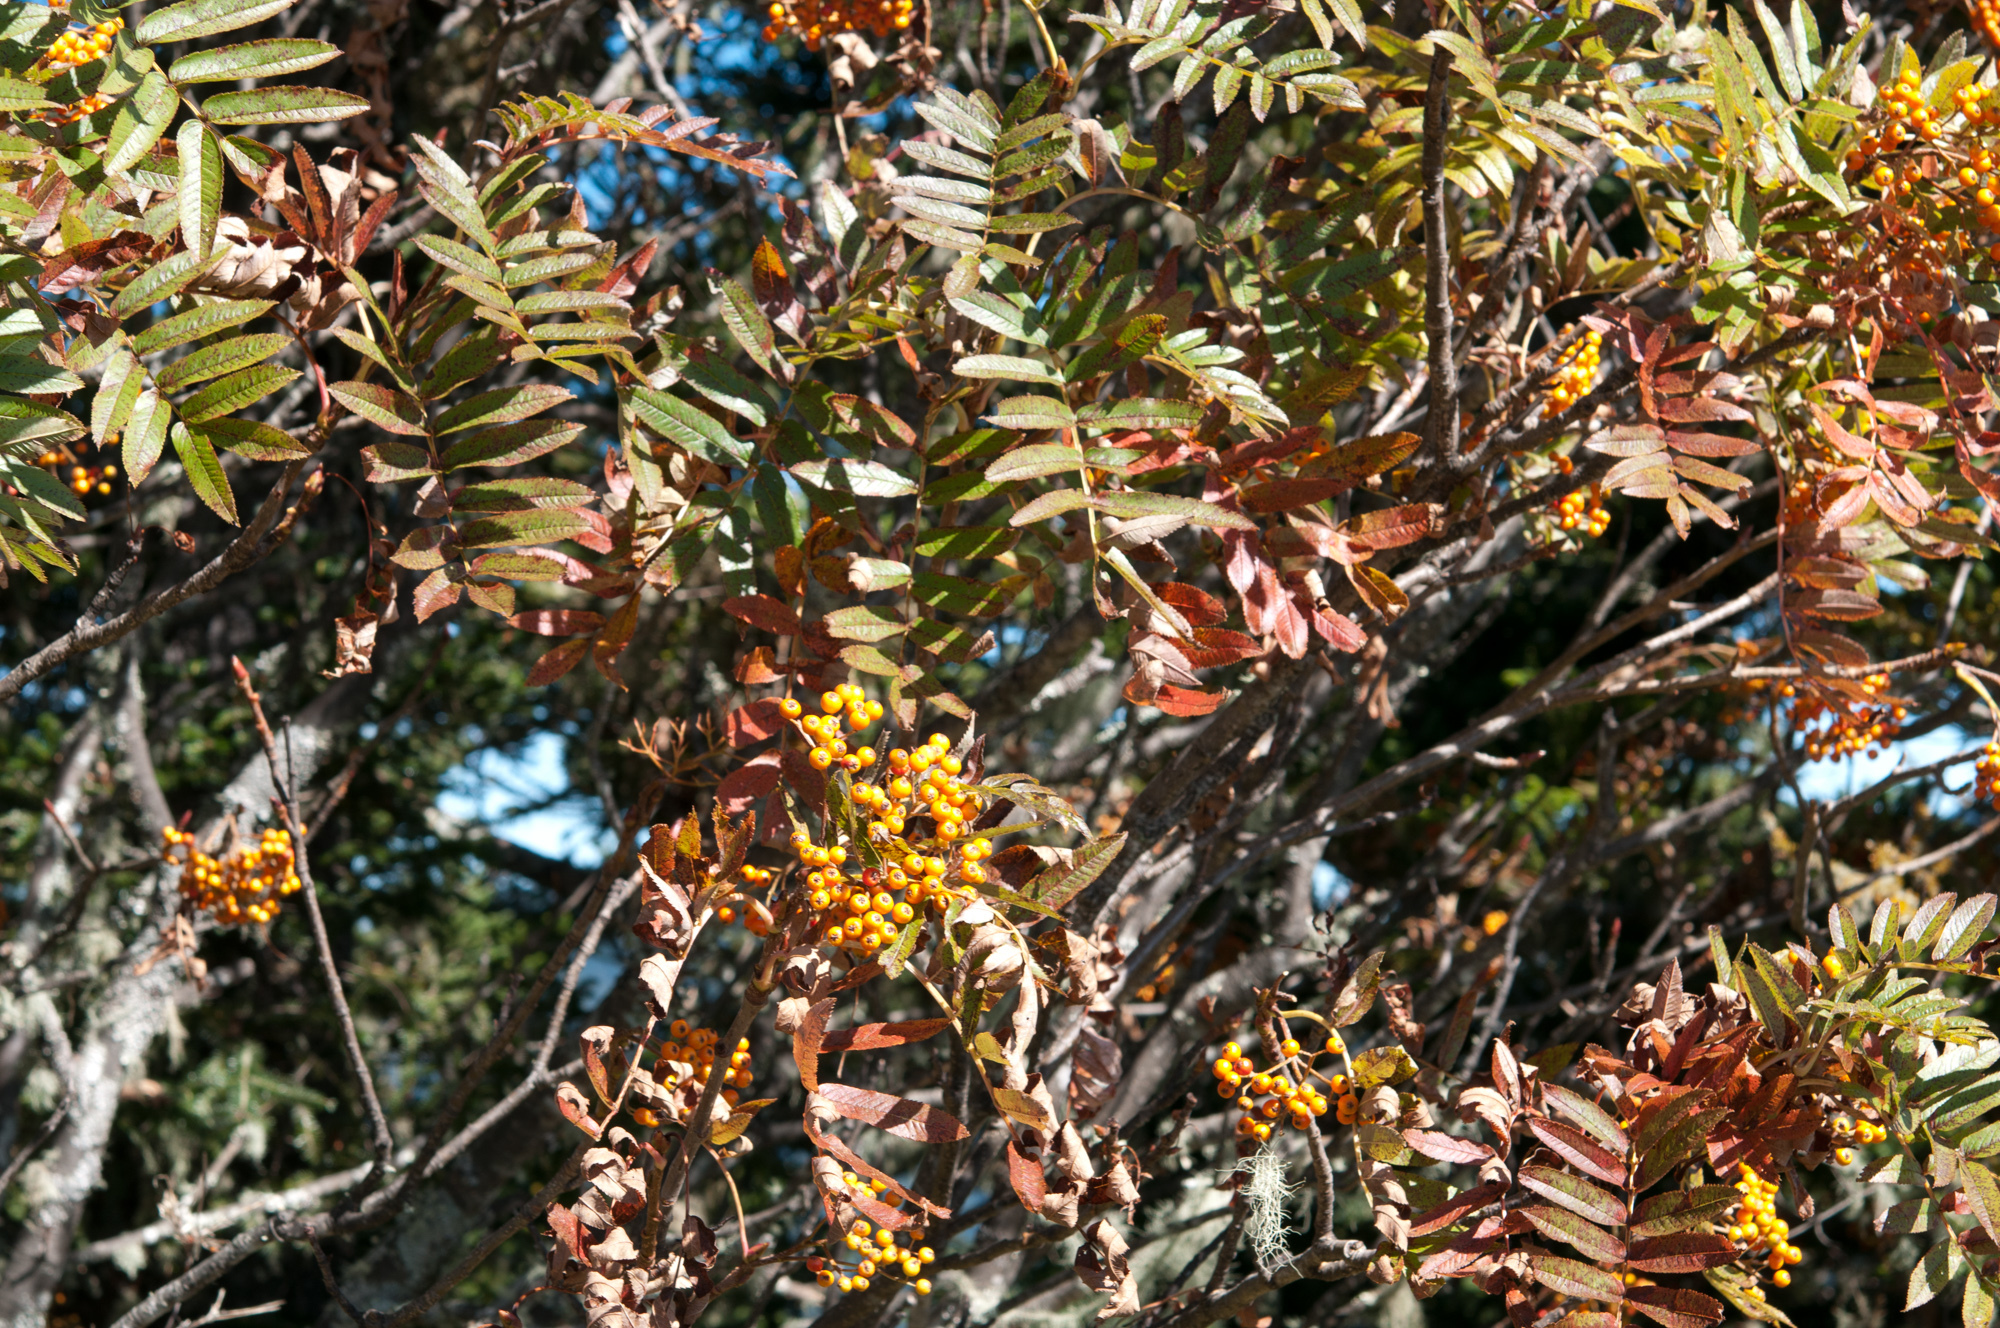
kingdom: Plantae
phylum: Tracheophyta
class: Magnoliopsida
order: Rosales
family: Rosaceae
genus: Sorbus
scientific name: Sorbus randaiensis
